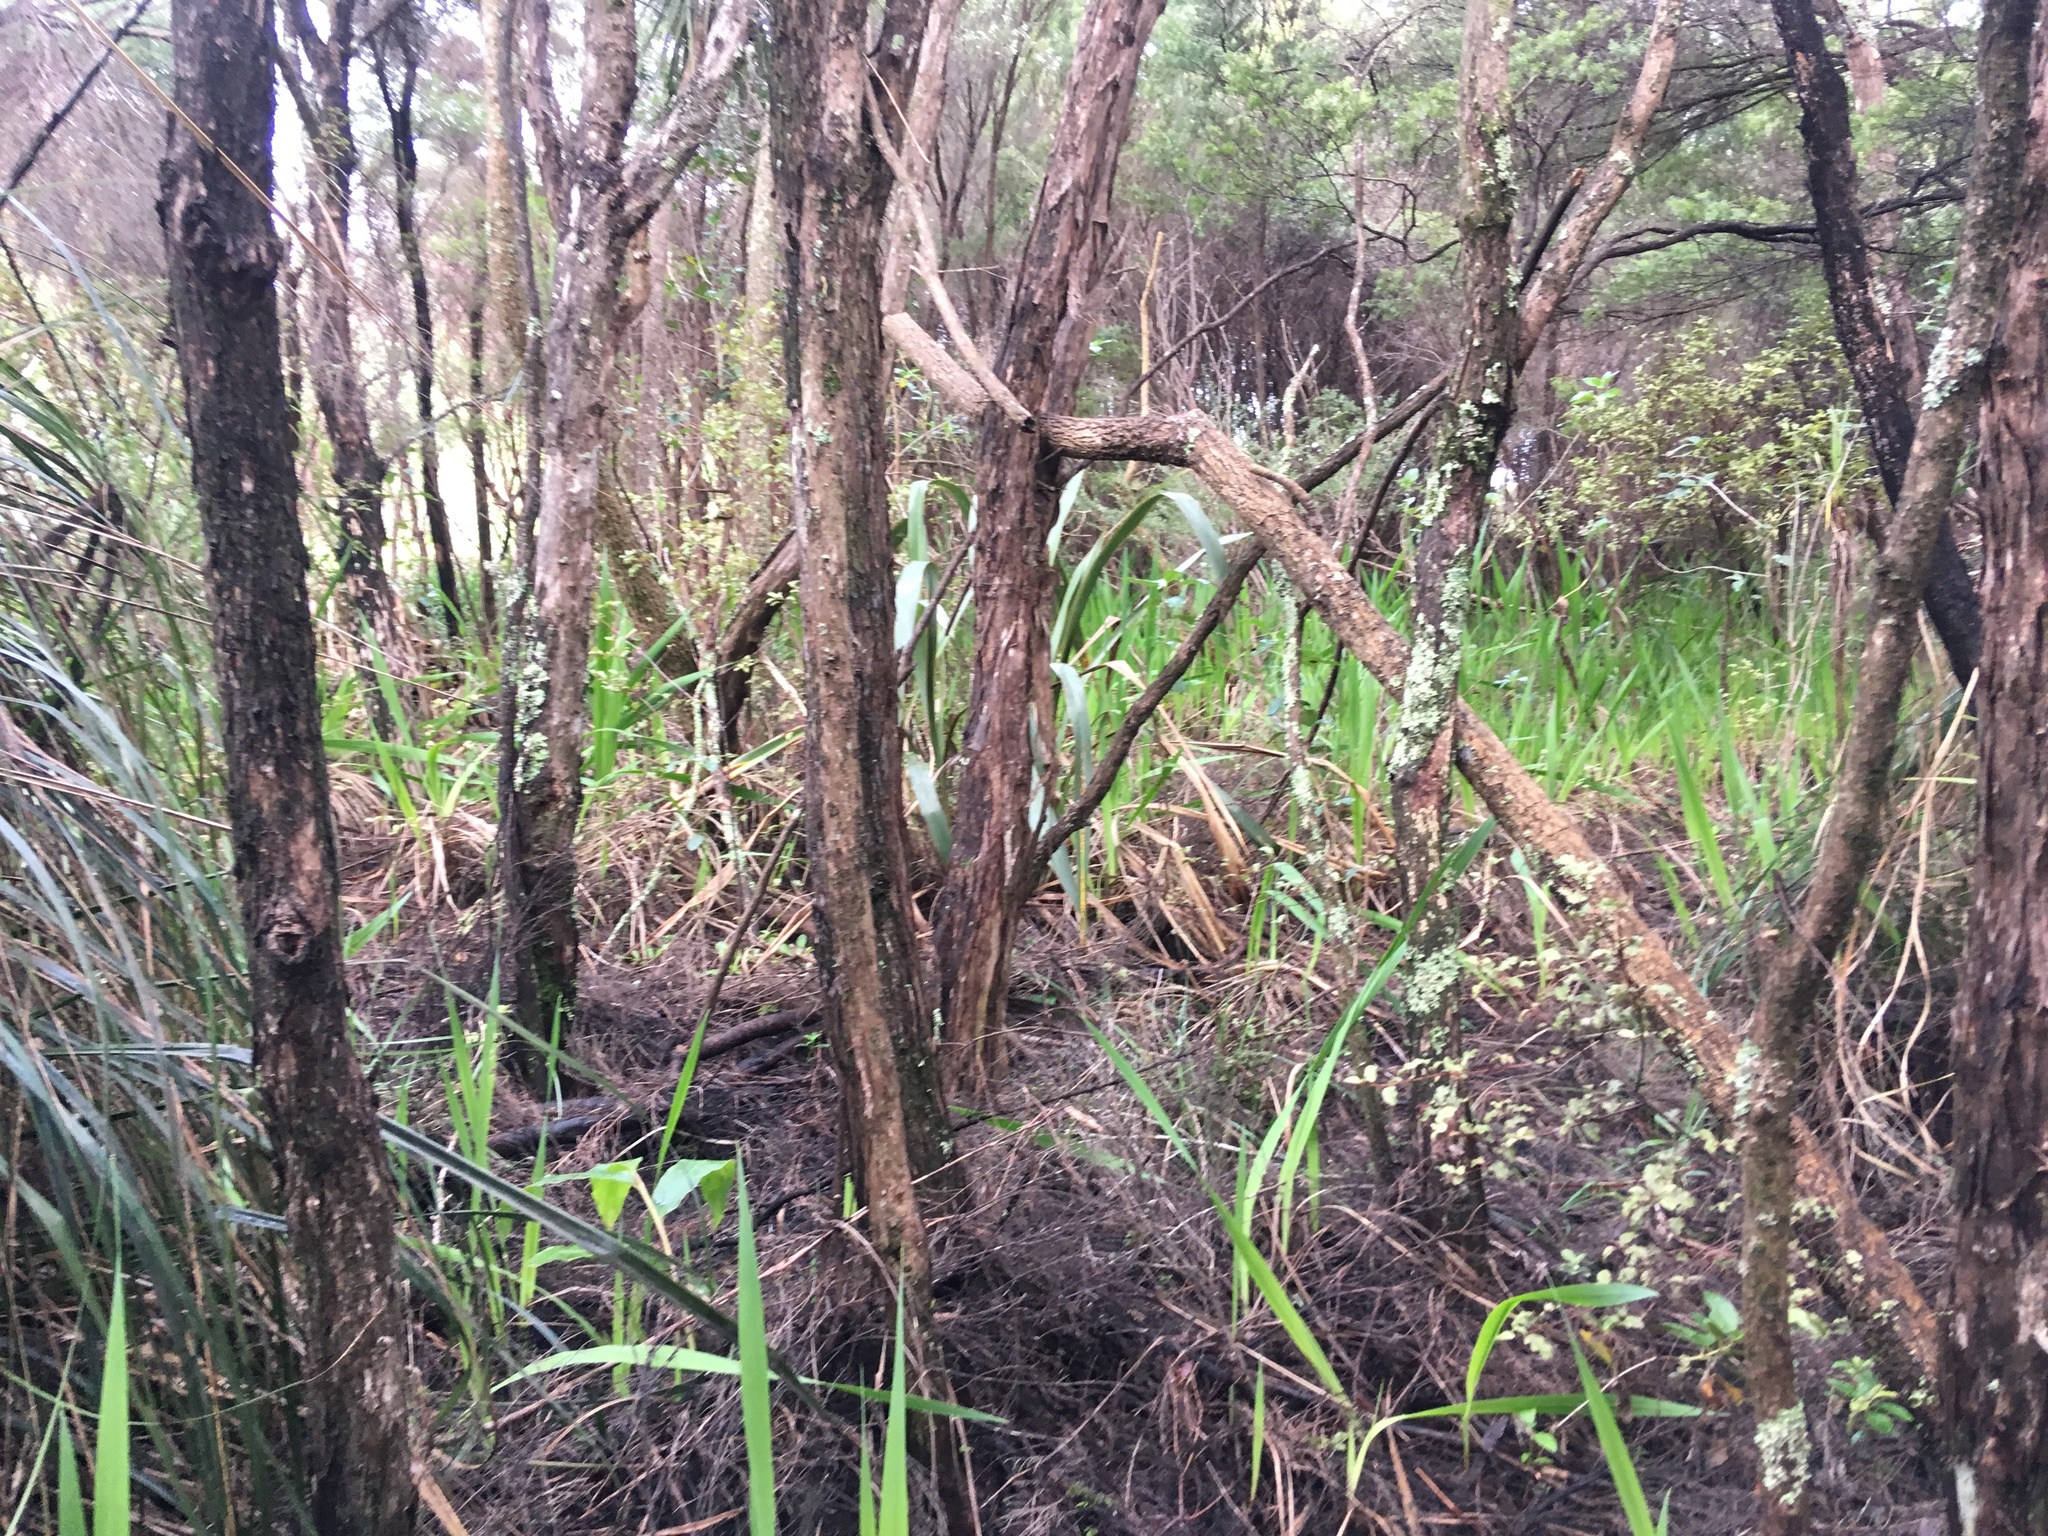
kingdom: Plantae
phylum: Tracheophyta
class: Liliopsida
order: Asparagales
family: Iridaceae
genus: Watsonia
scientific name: Watsonia meriana
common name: Bulbil bugle-lily
